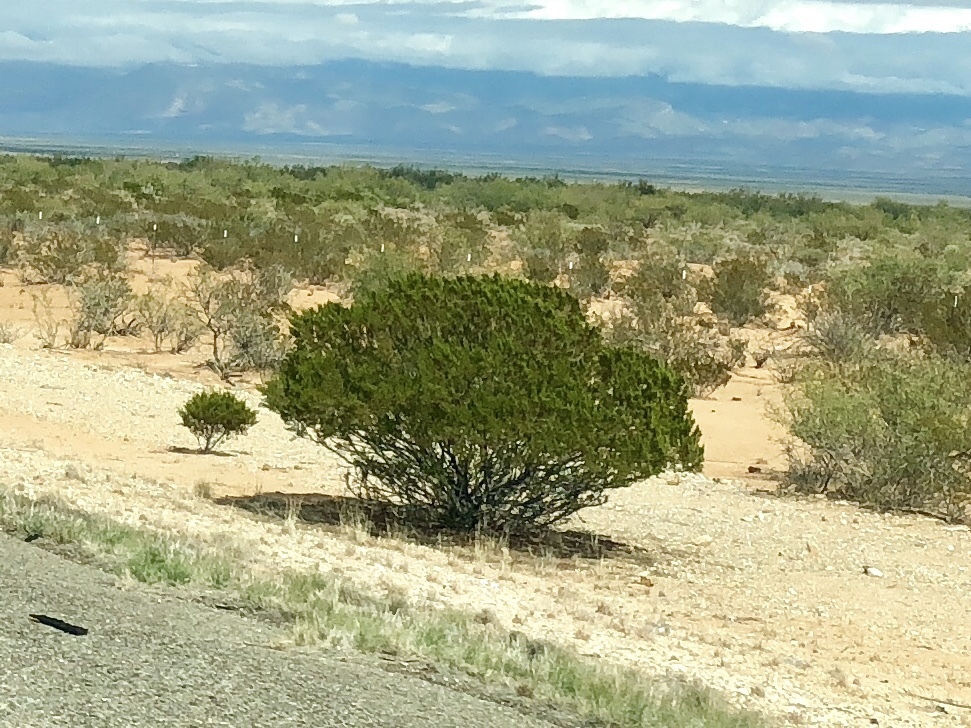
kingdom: Plantae
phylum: Tracheophyta
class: Magnoliopsida
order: Zygophyllales
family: Zygophyllaceae
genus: Larrea
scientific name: Larrea tridentata
